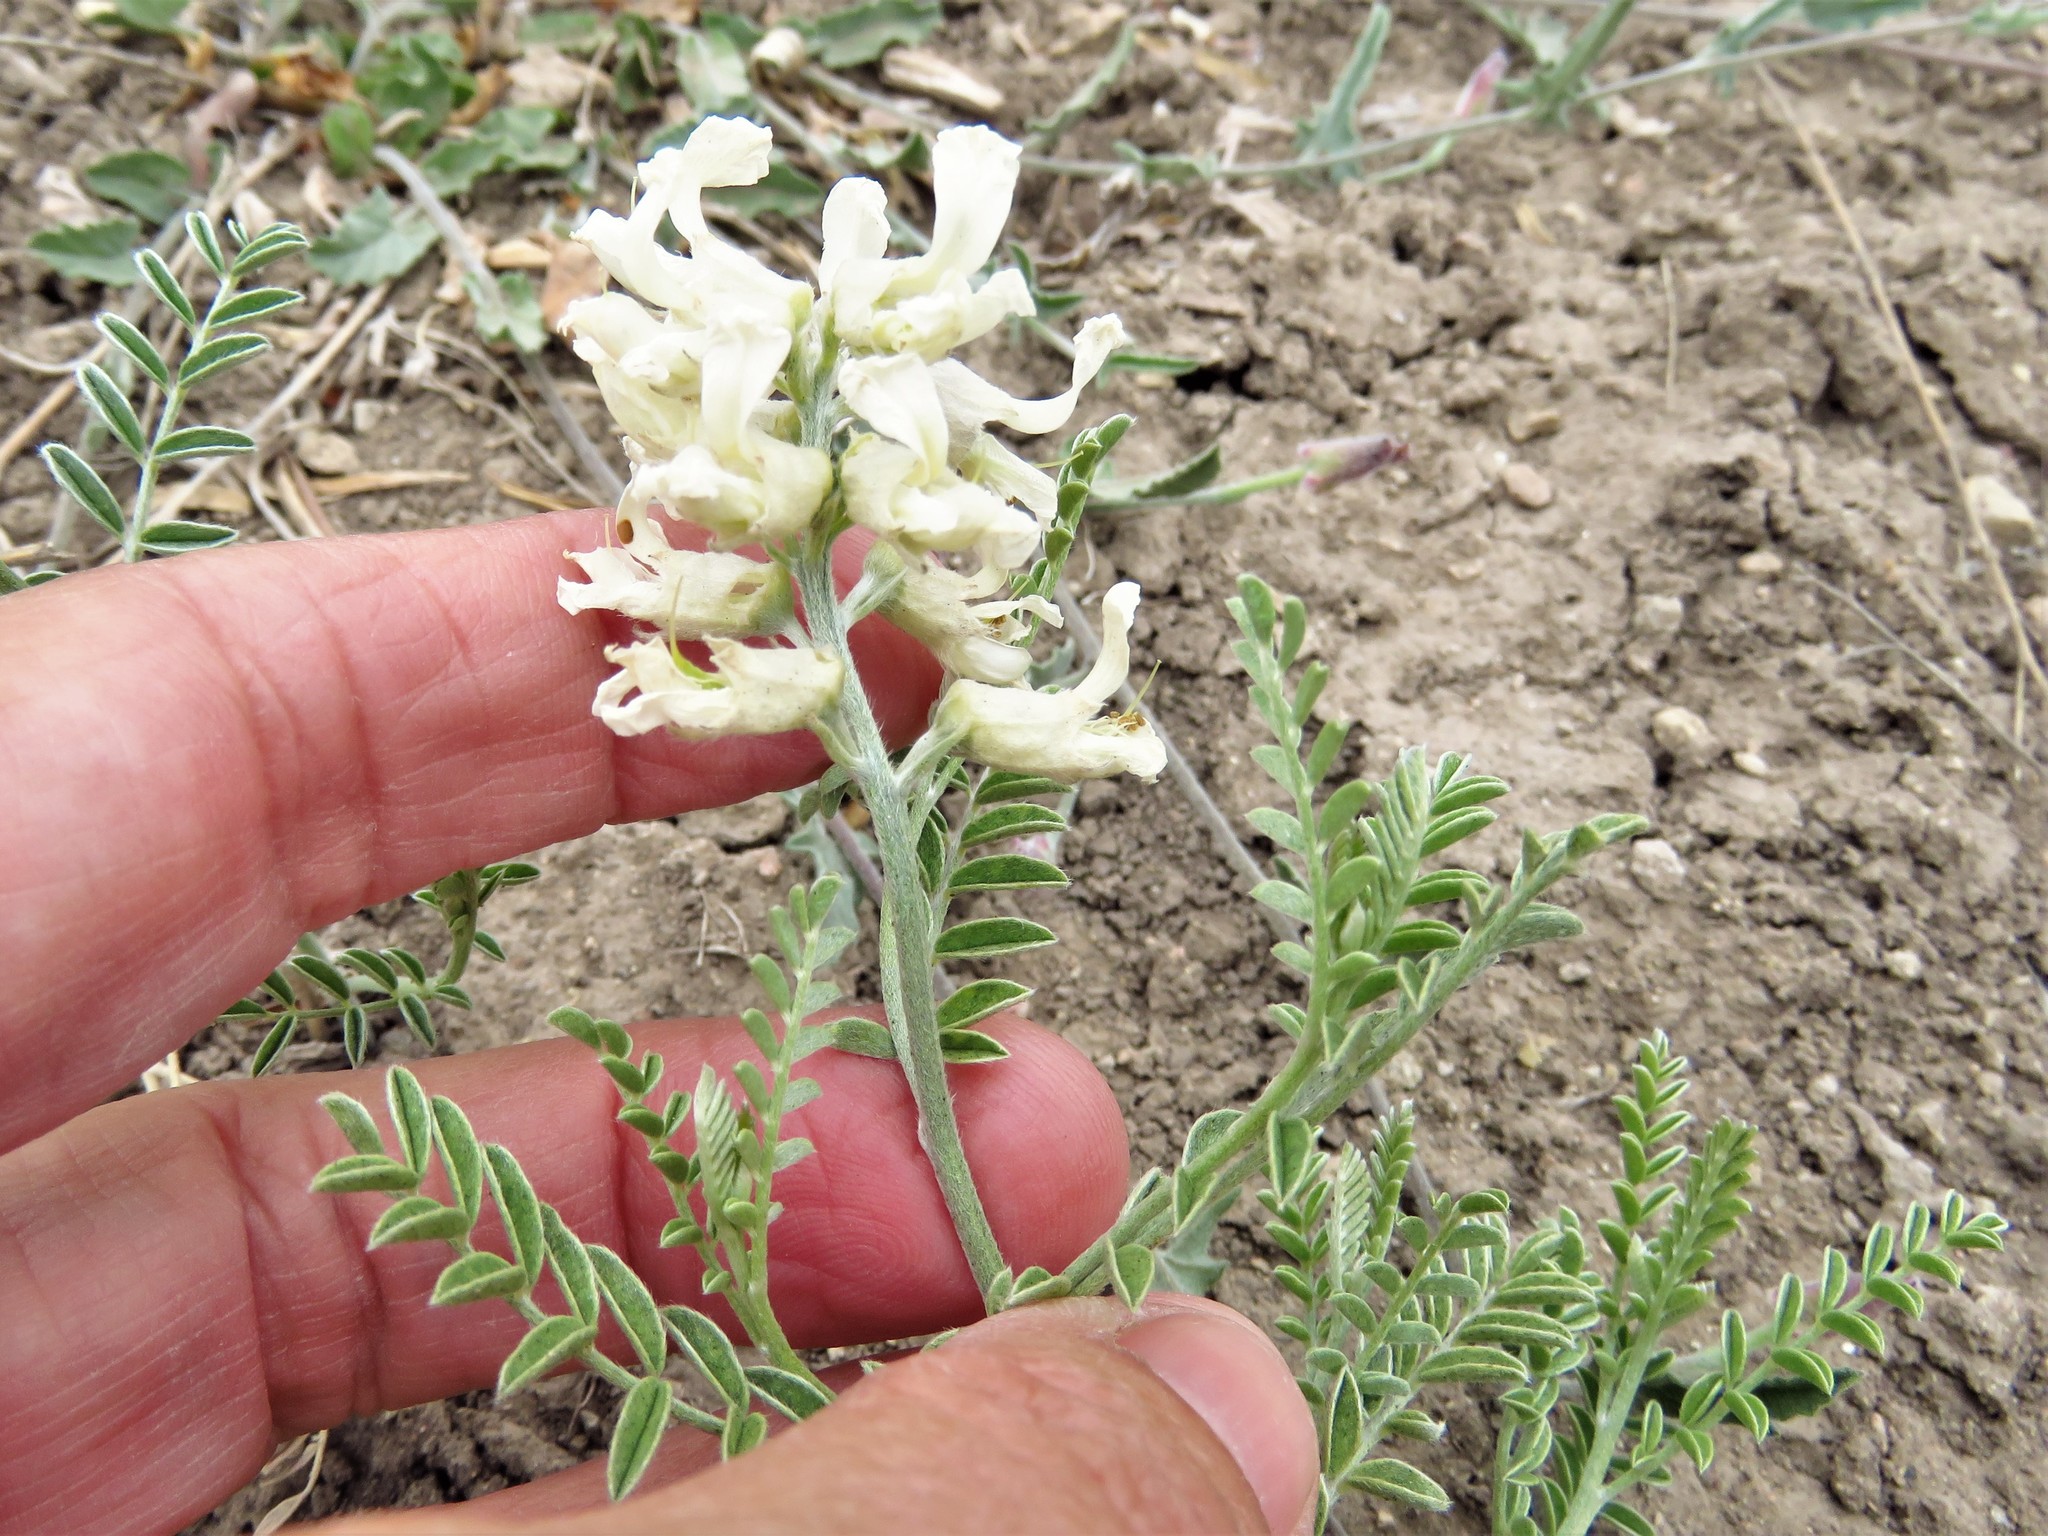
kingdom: Plantae
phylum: Tracheophyta
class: Magnoliopsida
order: Fabales
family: Fabaceae
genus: Sophora
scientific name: Sophora nuttalliana
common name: Silky sophora
